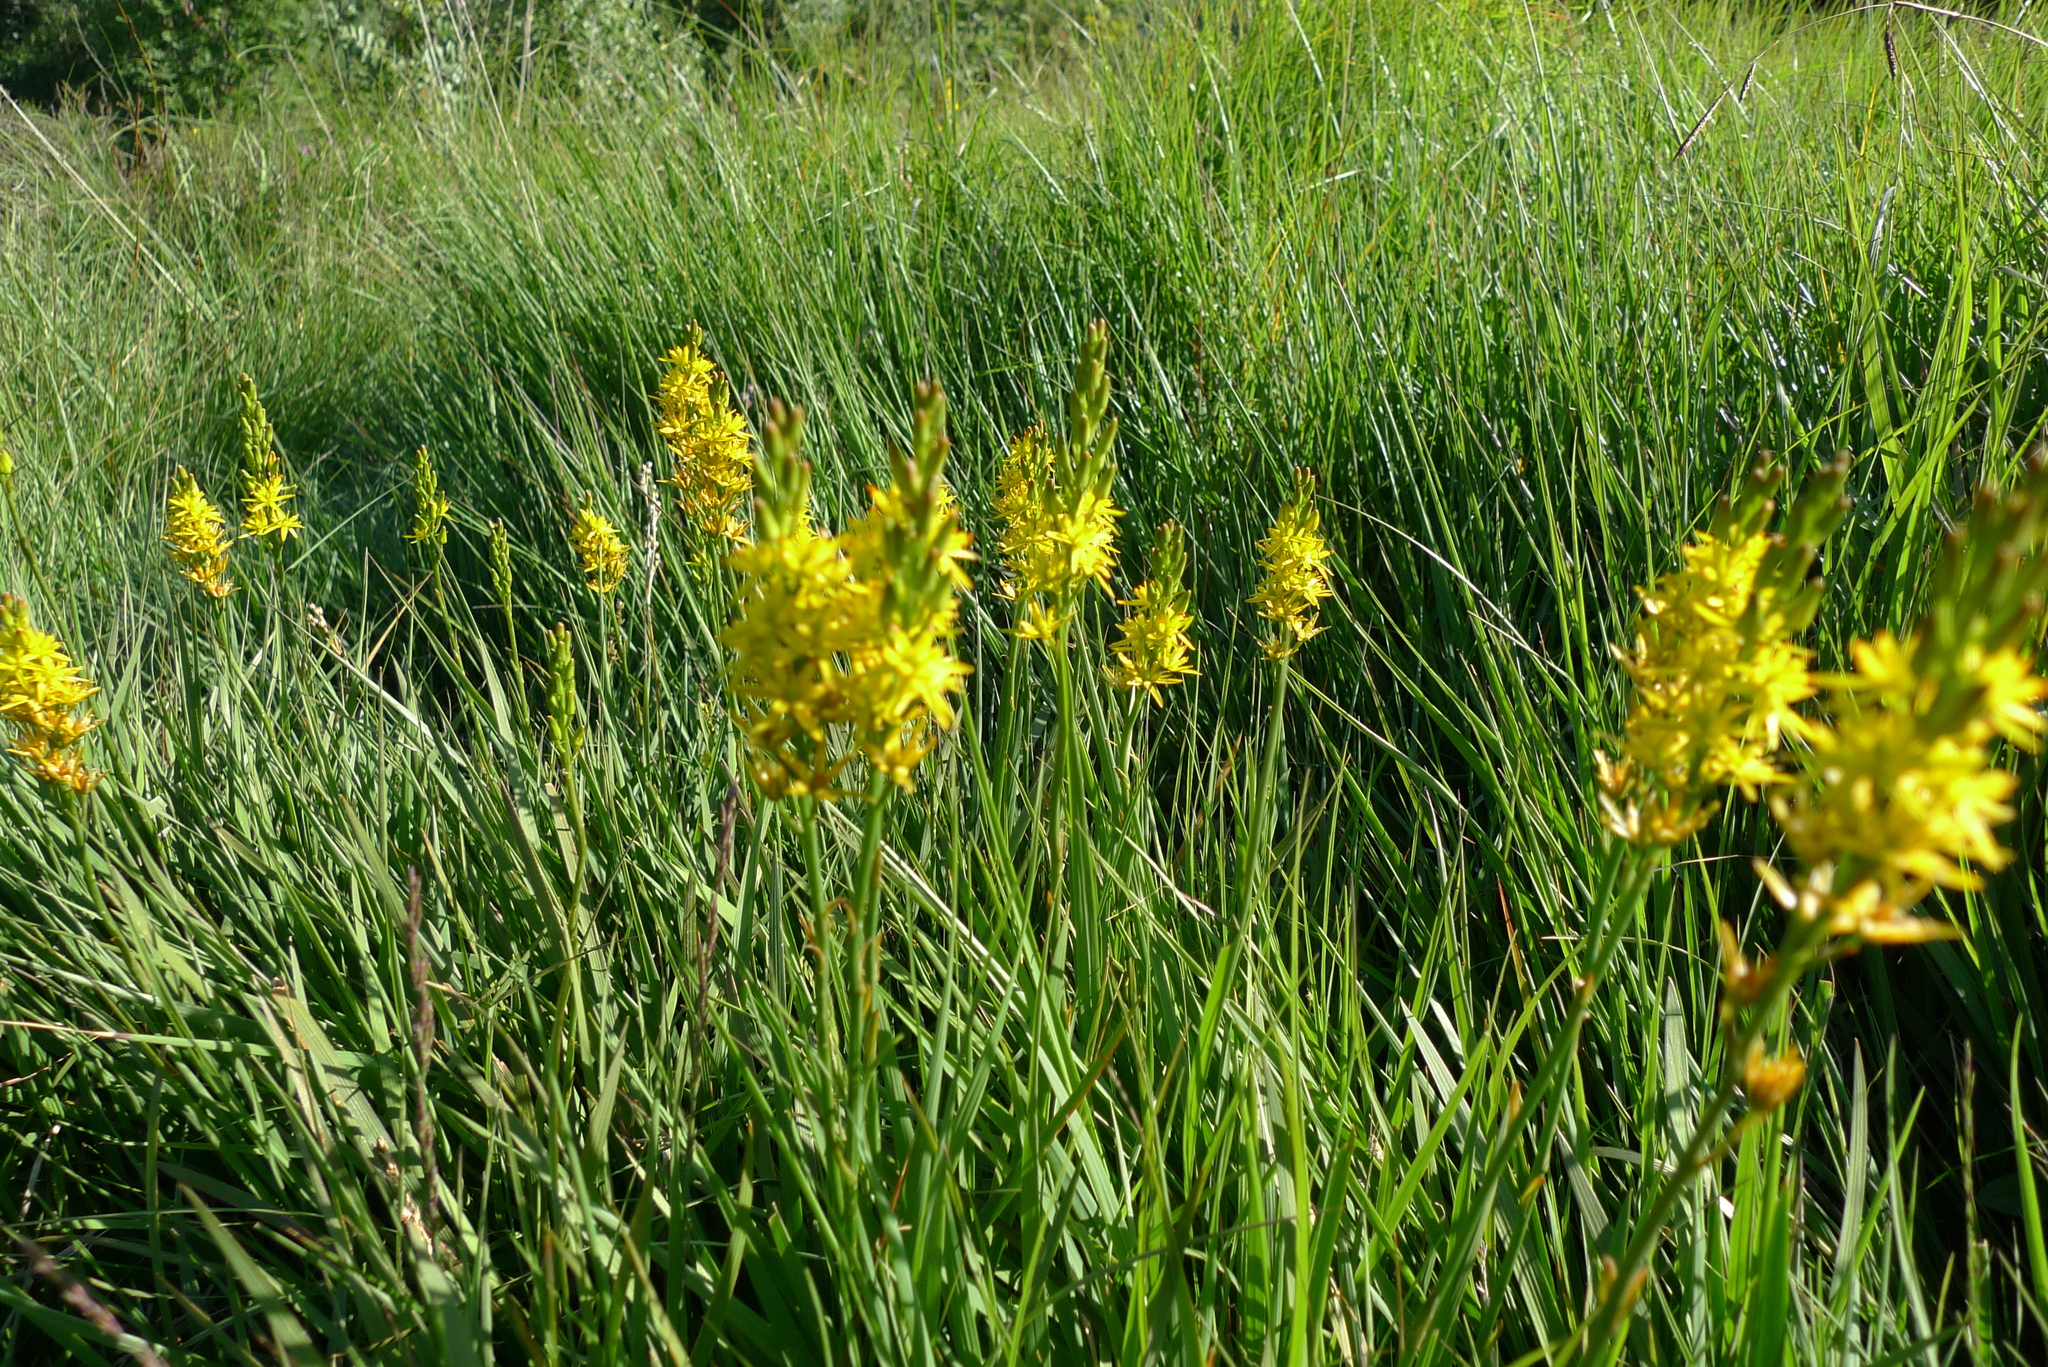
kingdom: Plantae
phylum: Tracheophyta
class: Liliopsida
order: Dioscoreales
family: Nartheciaceae
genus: Narthecium
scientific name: Narthecium ossifragum
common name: Bog asphodel
